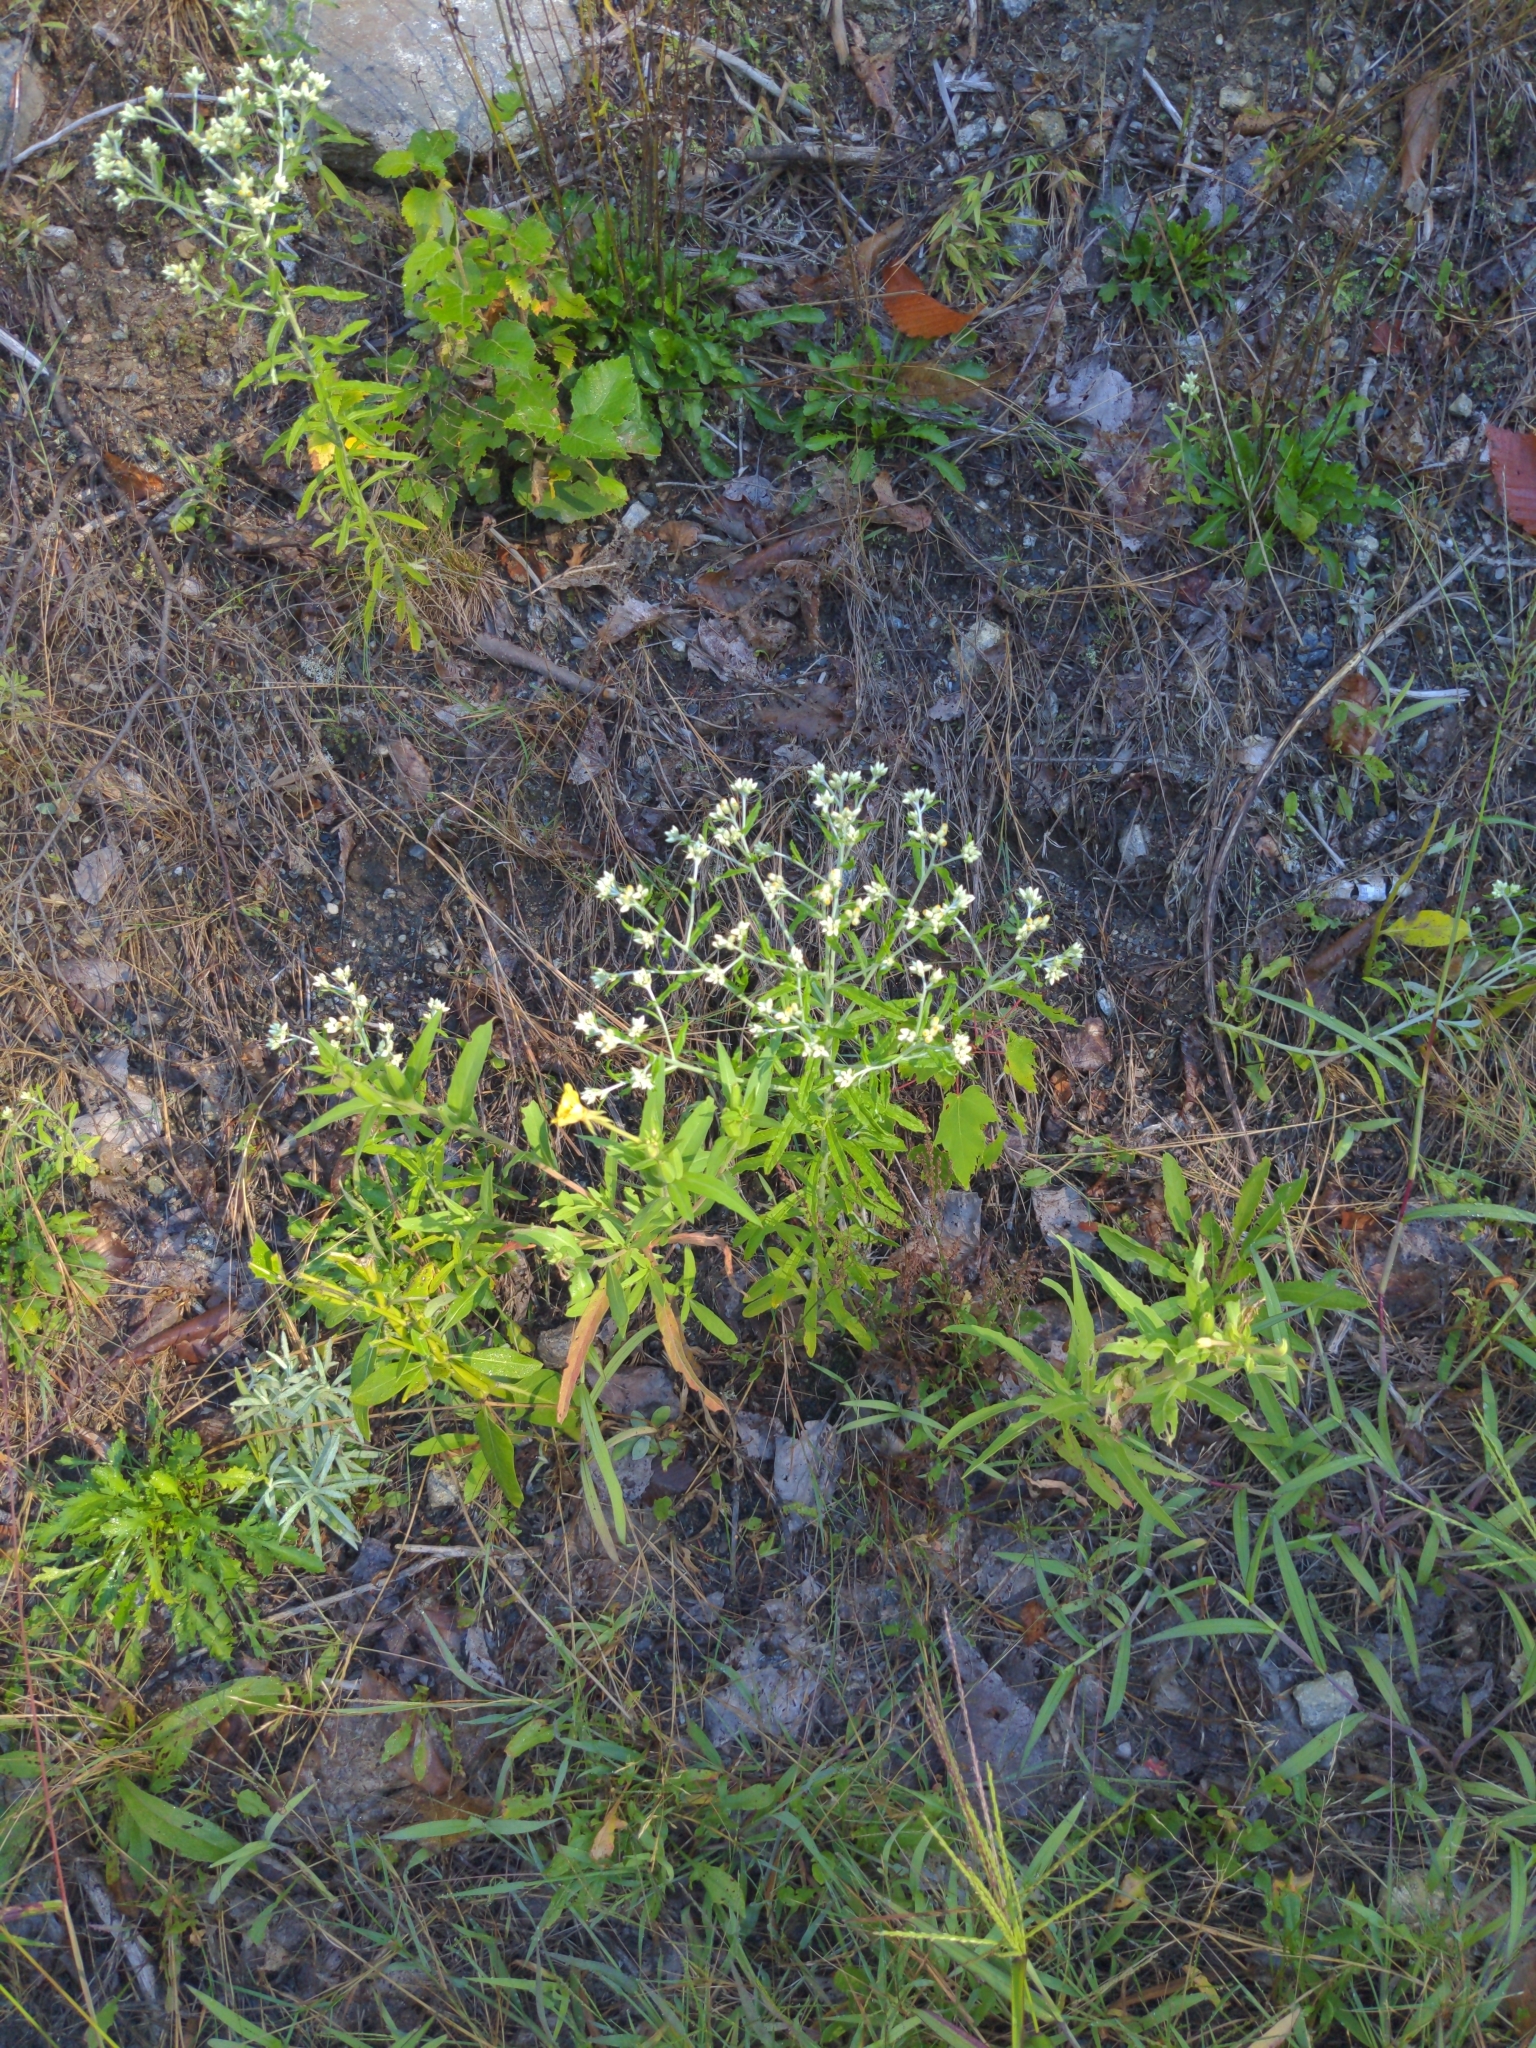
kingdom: Plantae
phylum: Tracheophyta
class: Magnoliopsida
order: Asterales
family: Asteraceae
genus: Pseudognaphalium
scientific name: Pseudognaphalium obtusifolium
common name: Eastern rabbit-tobacco
